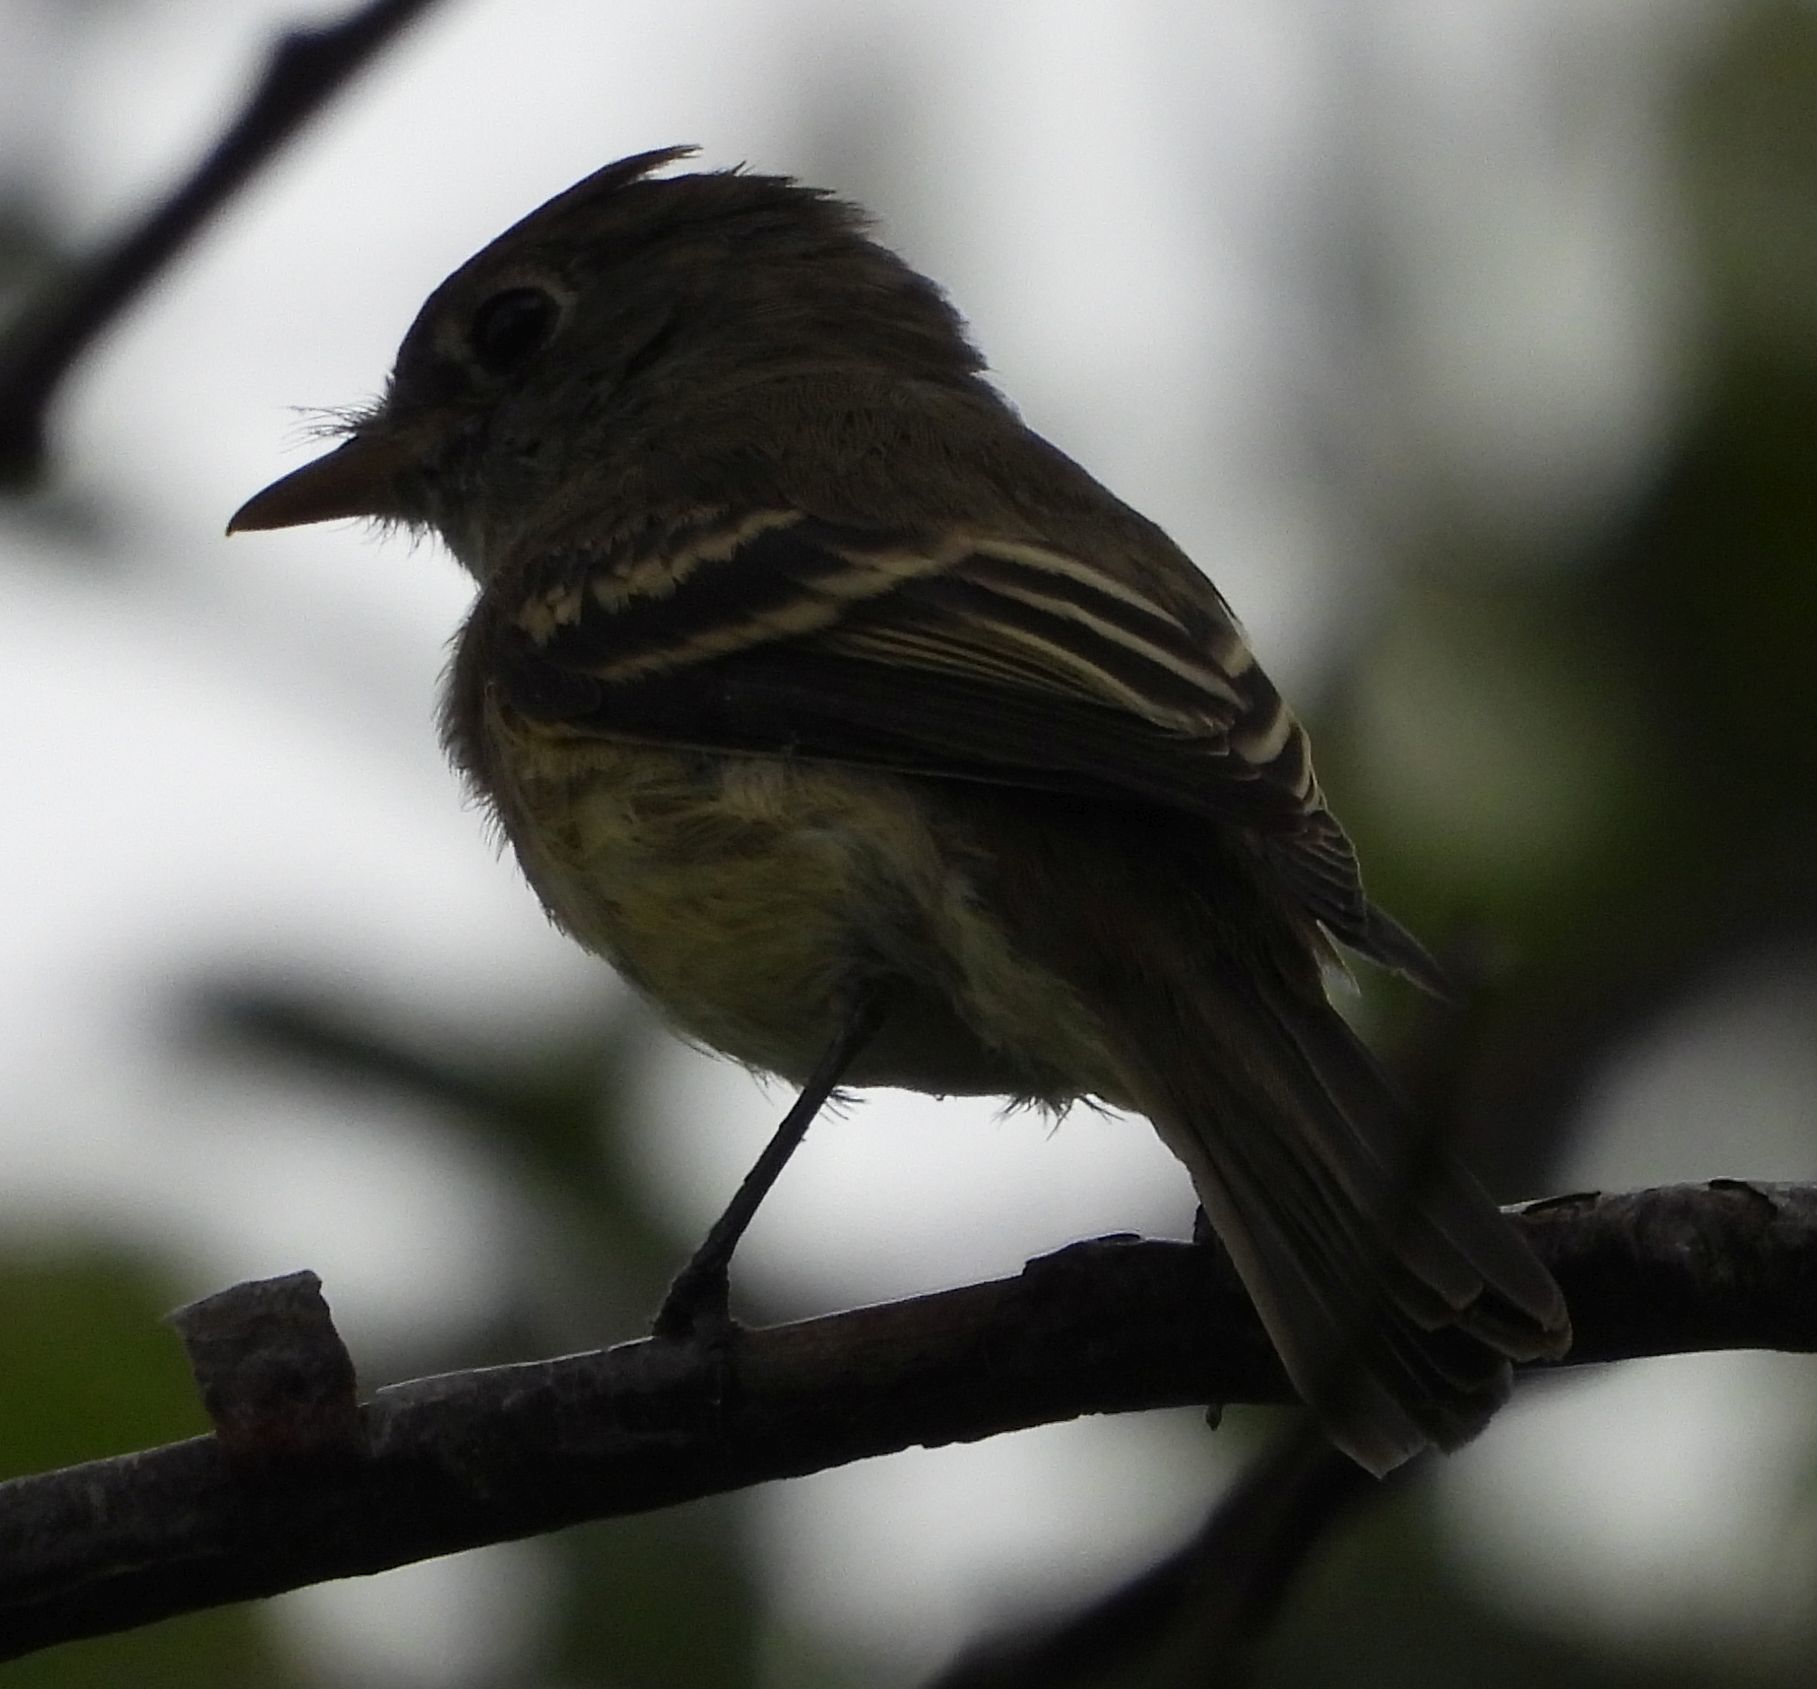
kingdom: Animalia
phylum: Chordata
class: Aves
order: Passeriformes
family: Tyrannidae
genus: Empidonax
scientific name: Empidonax
